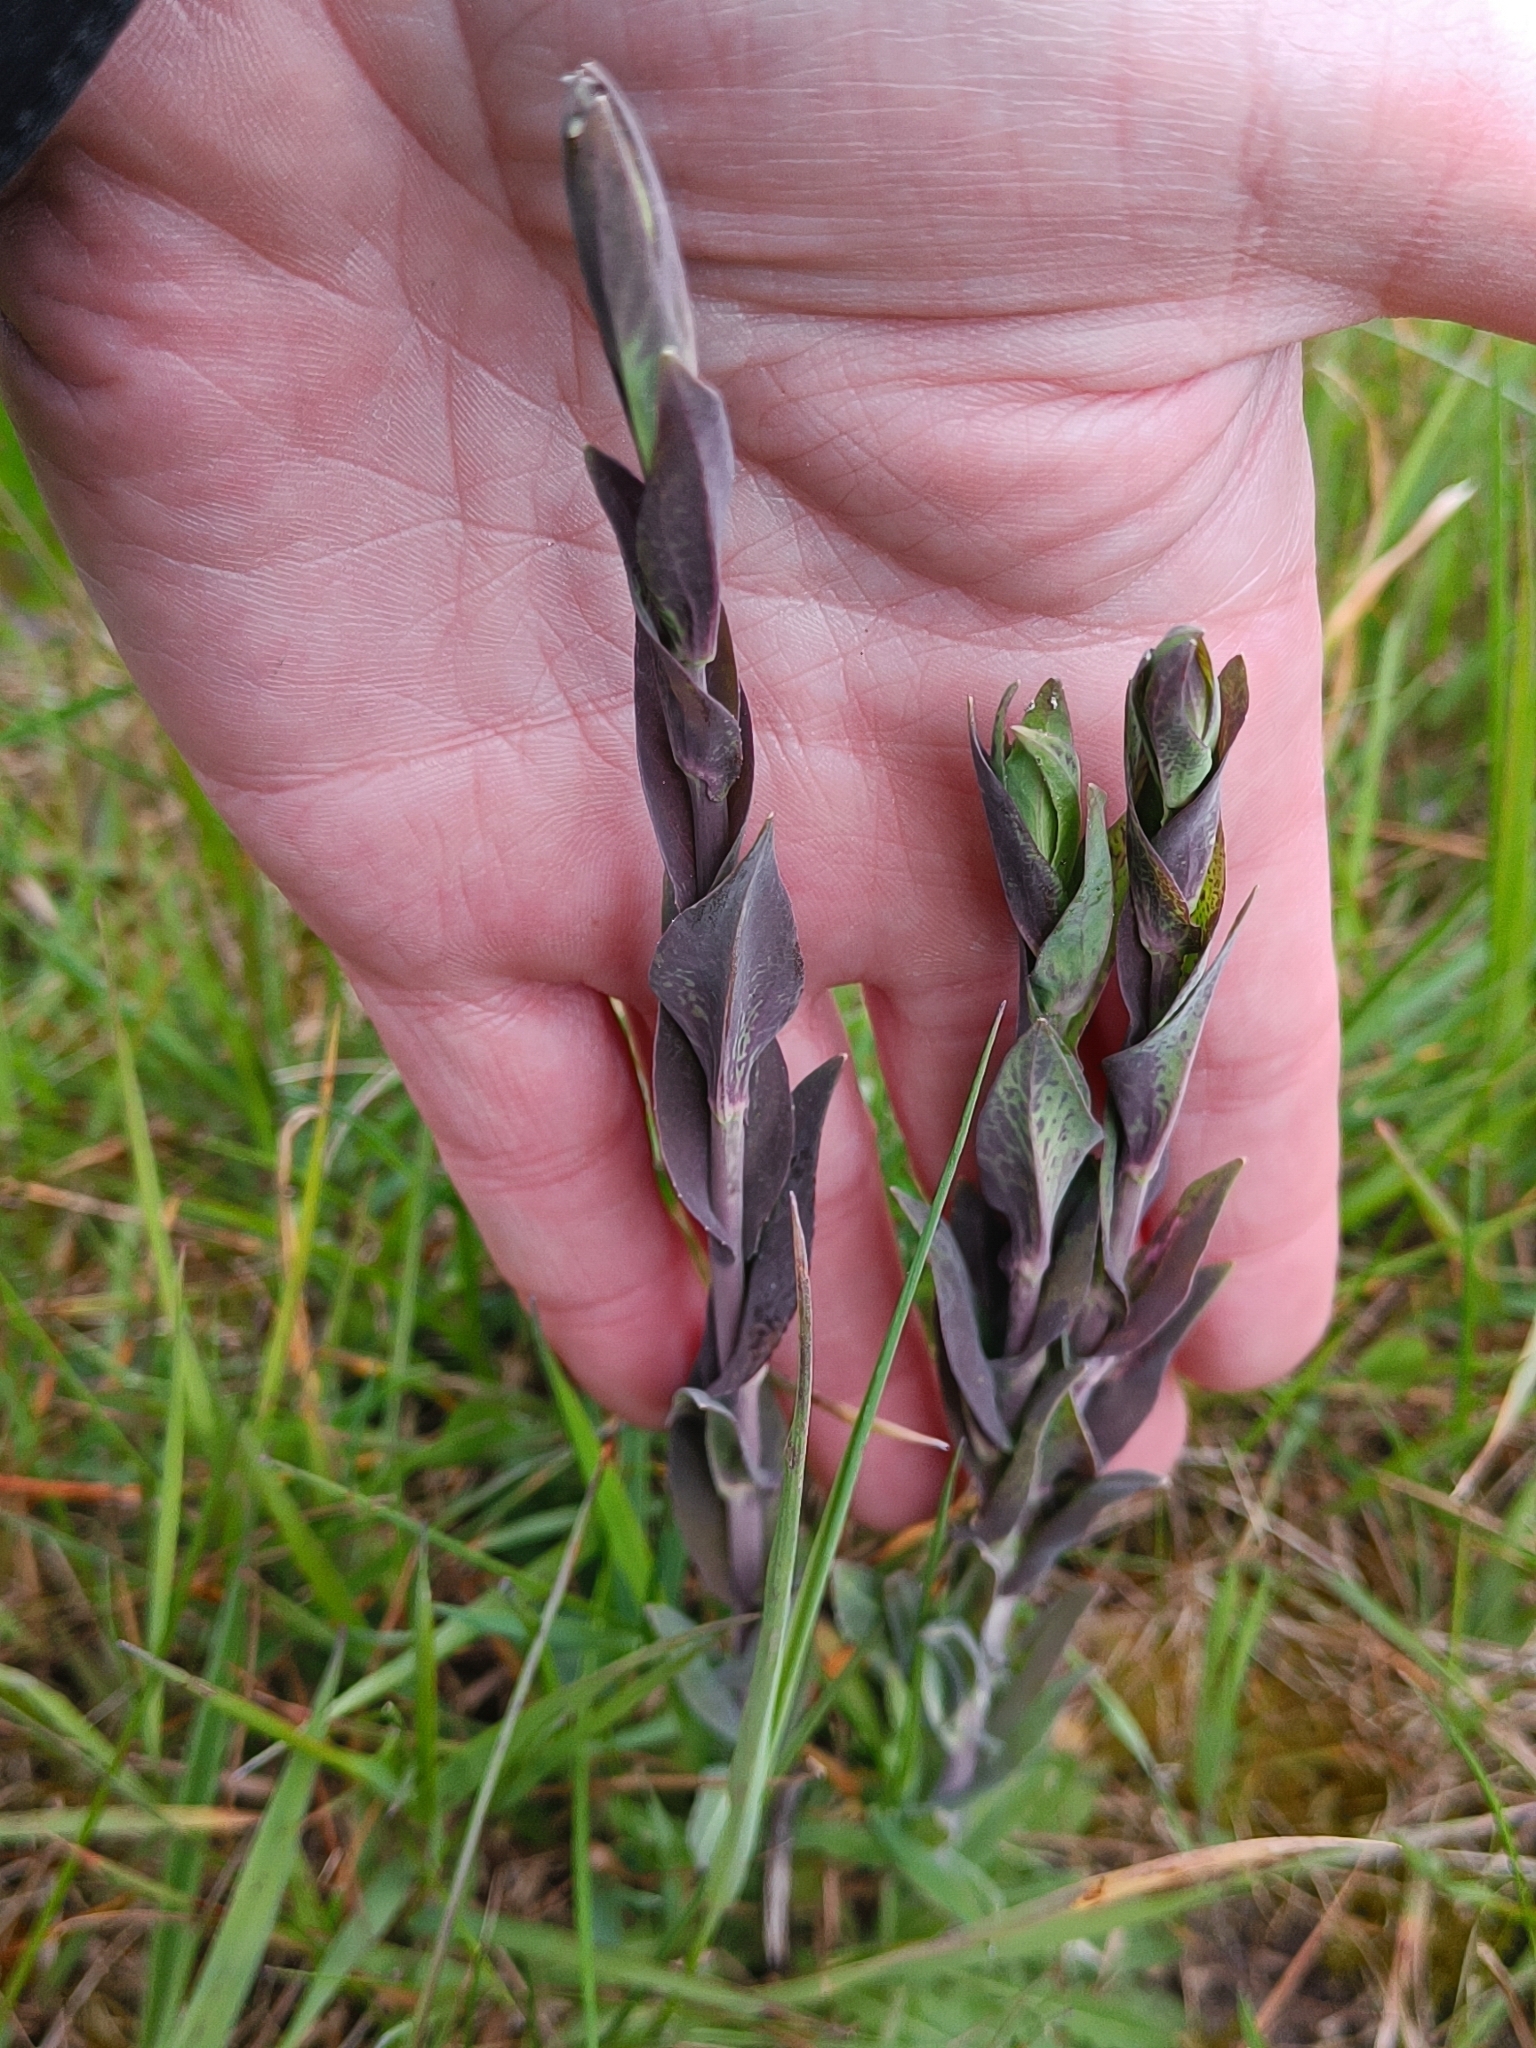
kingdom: Plantae
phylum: Tracheophyta
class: Magnoliopsida
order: Brassicales
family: Brassicaceae
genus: Turritis
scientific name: Turritis glabra
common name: Tower rockcress
